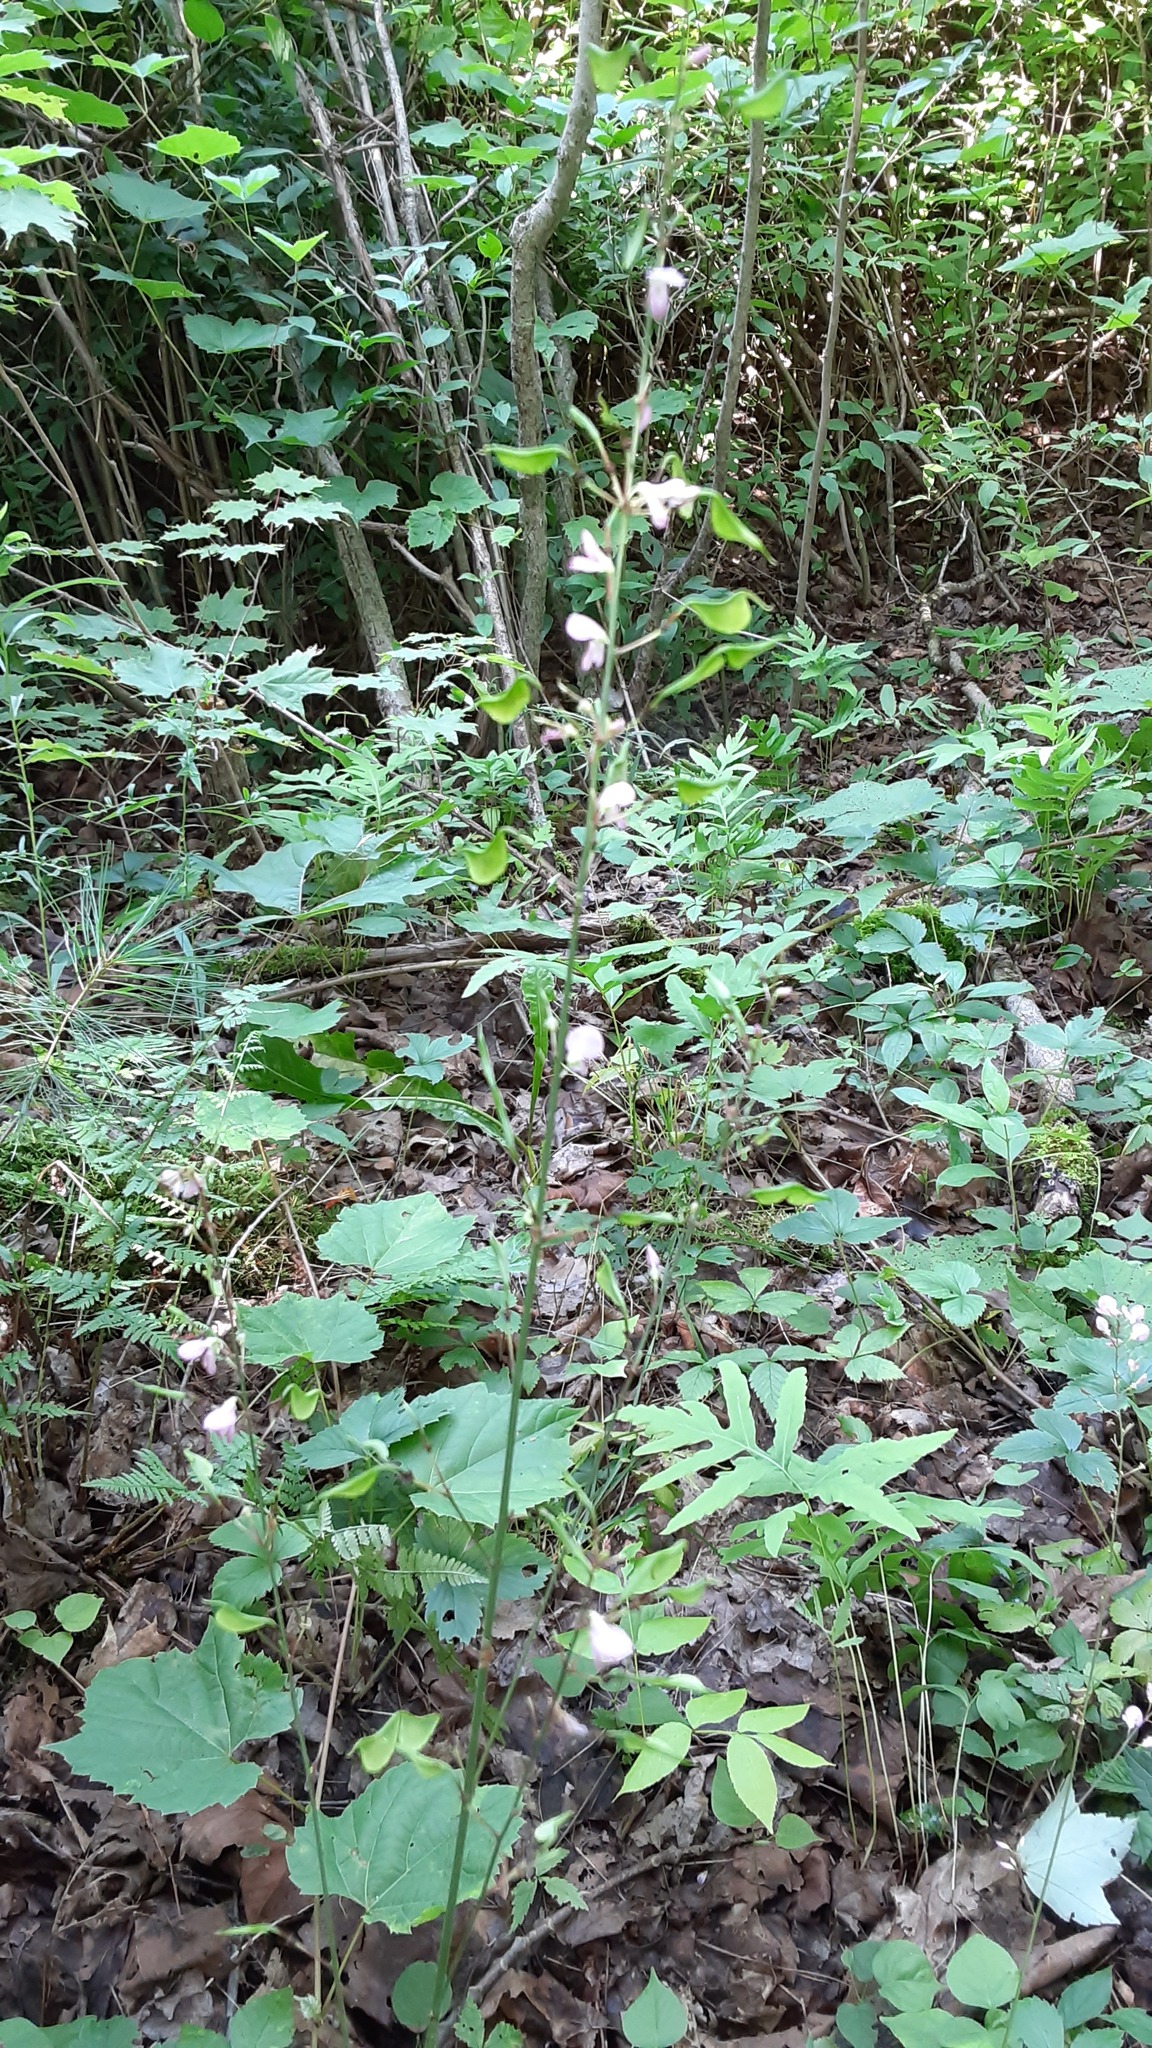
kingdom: Plantae
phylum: Tracheophyta
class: Magnoliopsida
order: Fabales
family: Fabaceae
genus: Hylodesmum
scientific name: Hylodesmum glutinosum
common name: Clustered-leaved tick-trefoil
